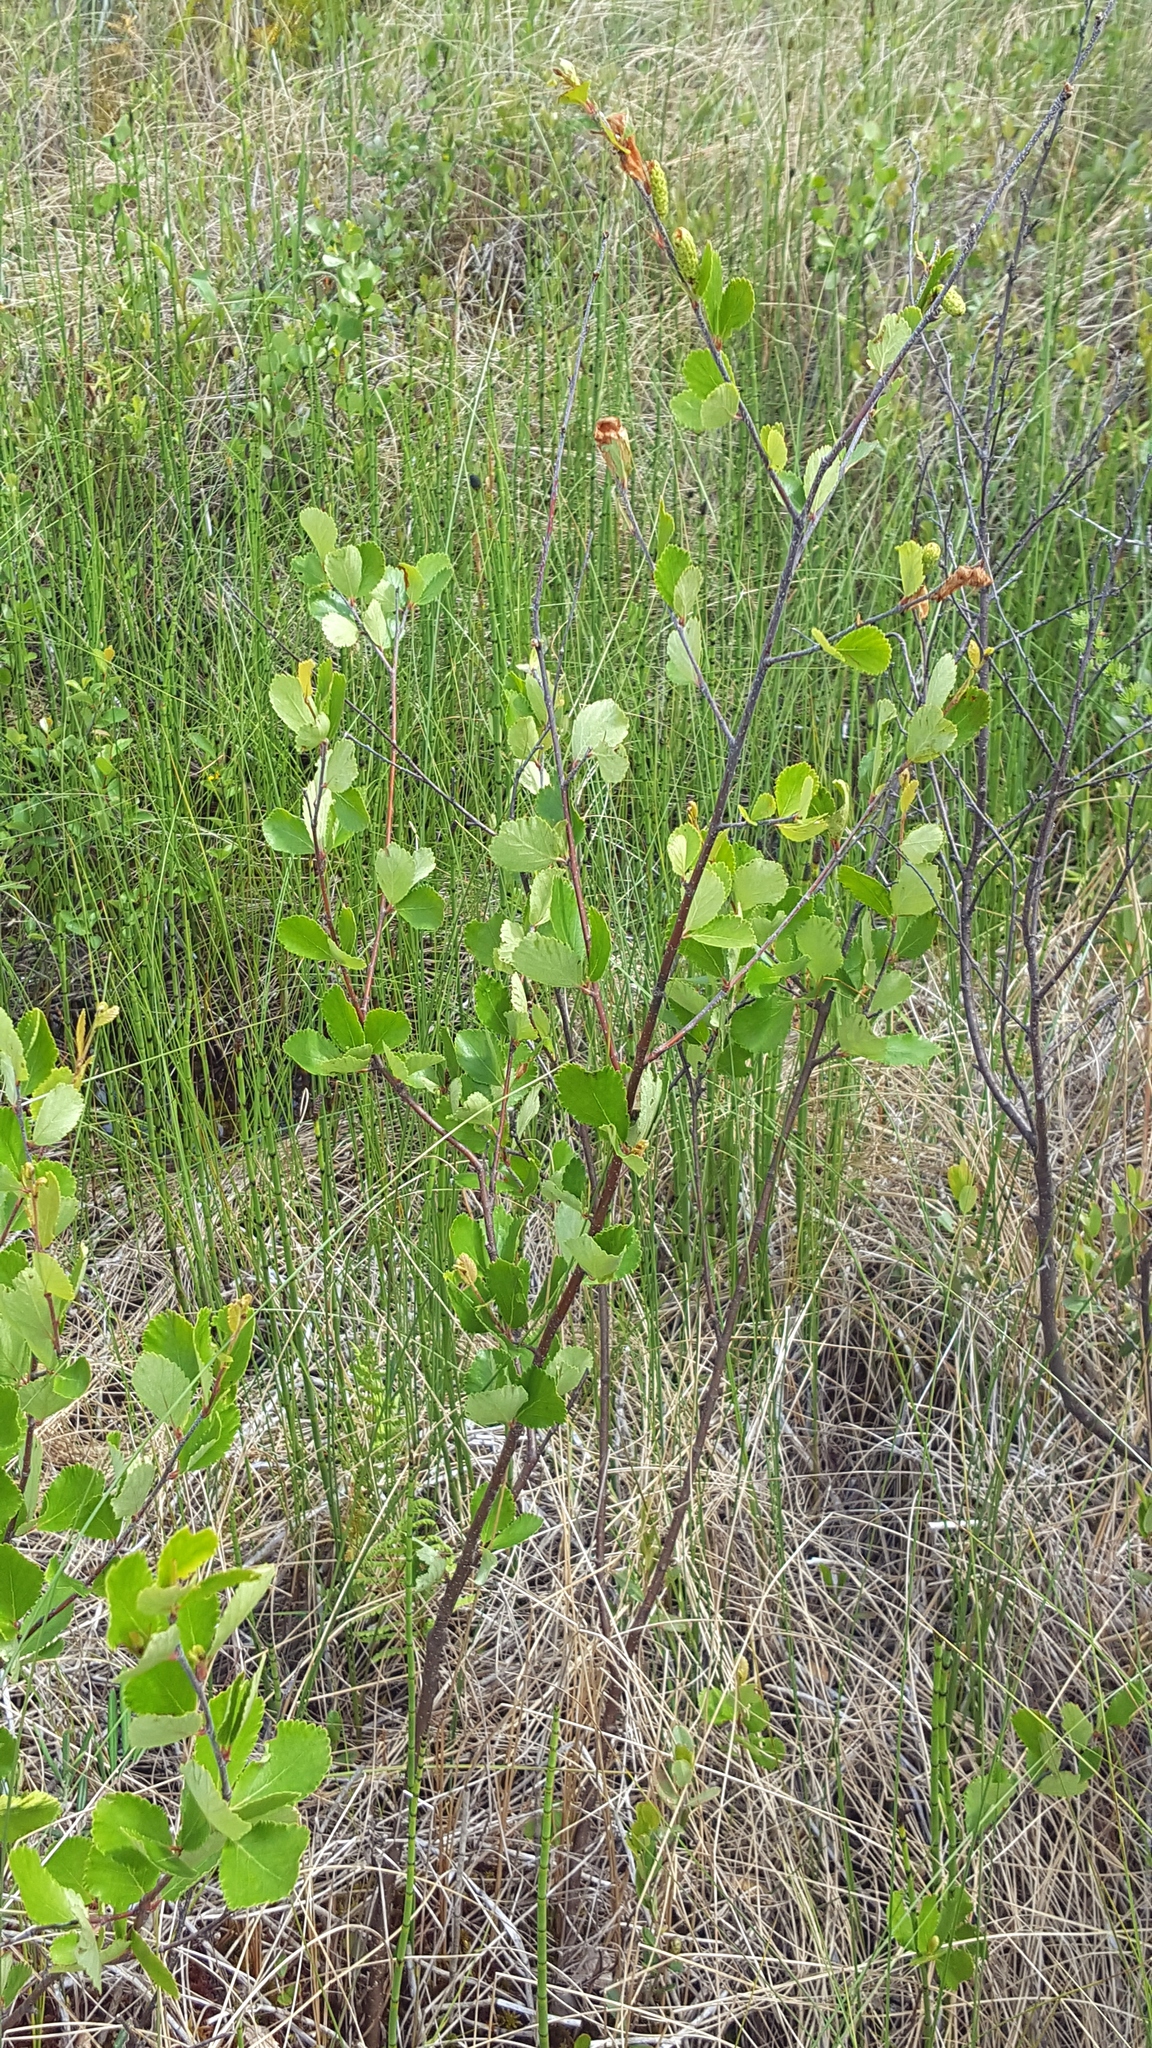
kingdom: Plantae
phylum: Tracheophyta
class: Magnoliopsida
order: Fagales
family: Betulaceae
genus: Betula
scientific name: Betula pumila
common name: Bog birch
